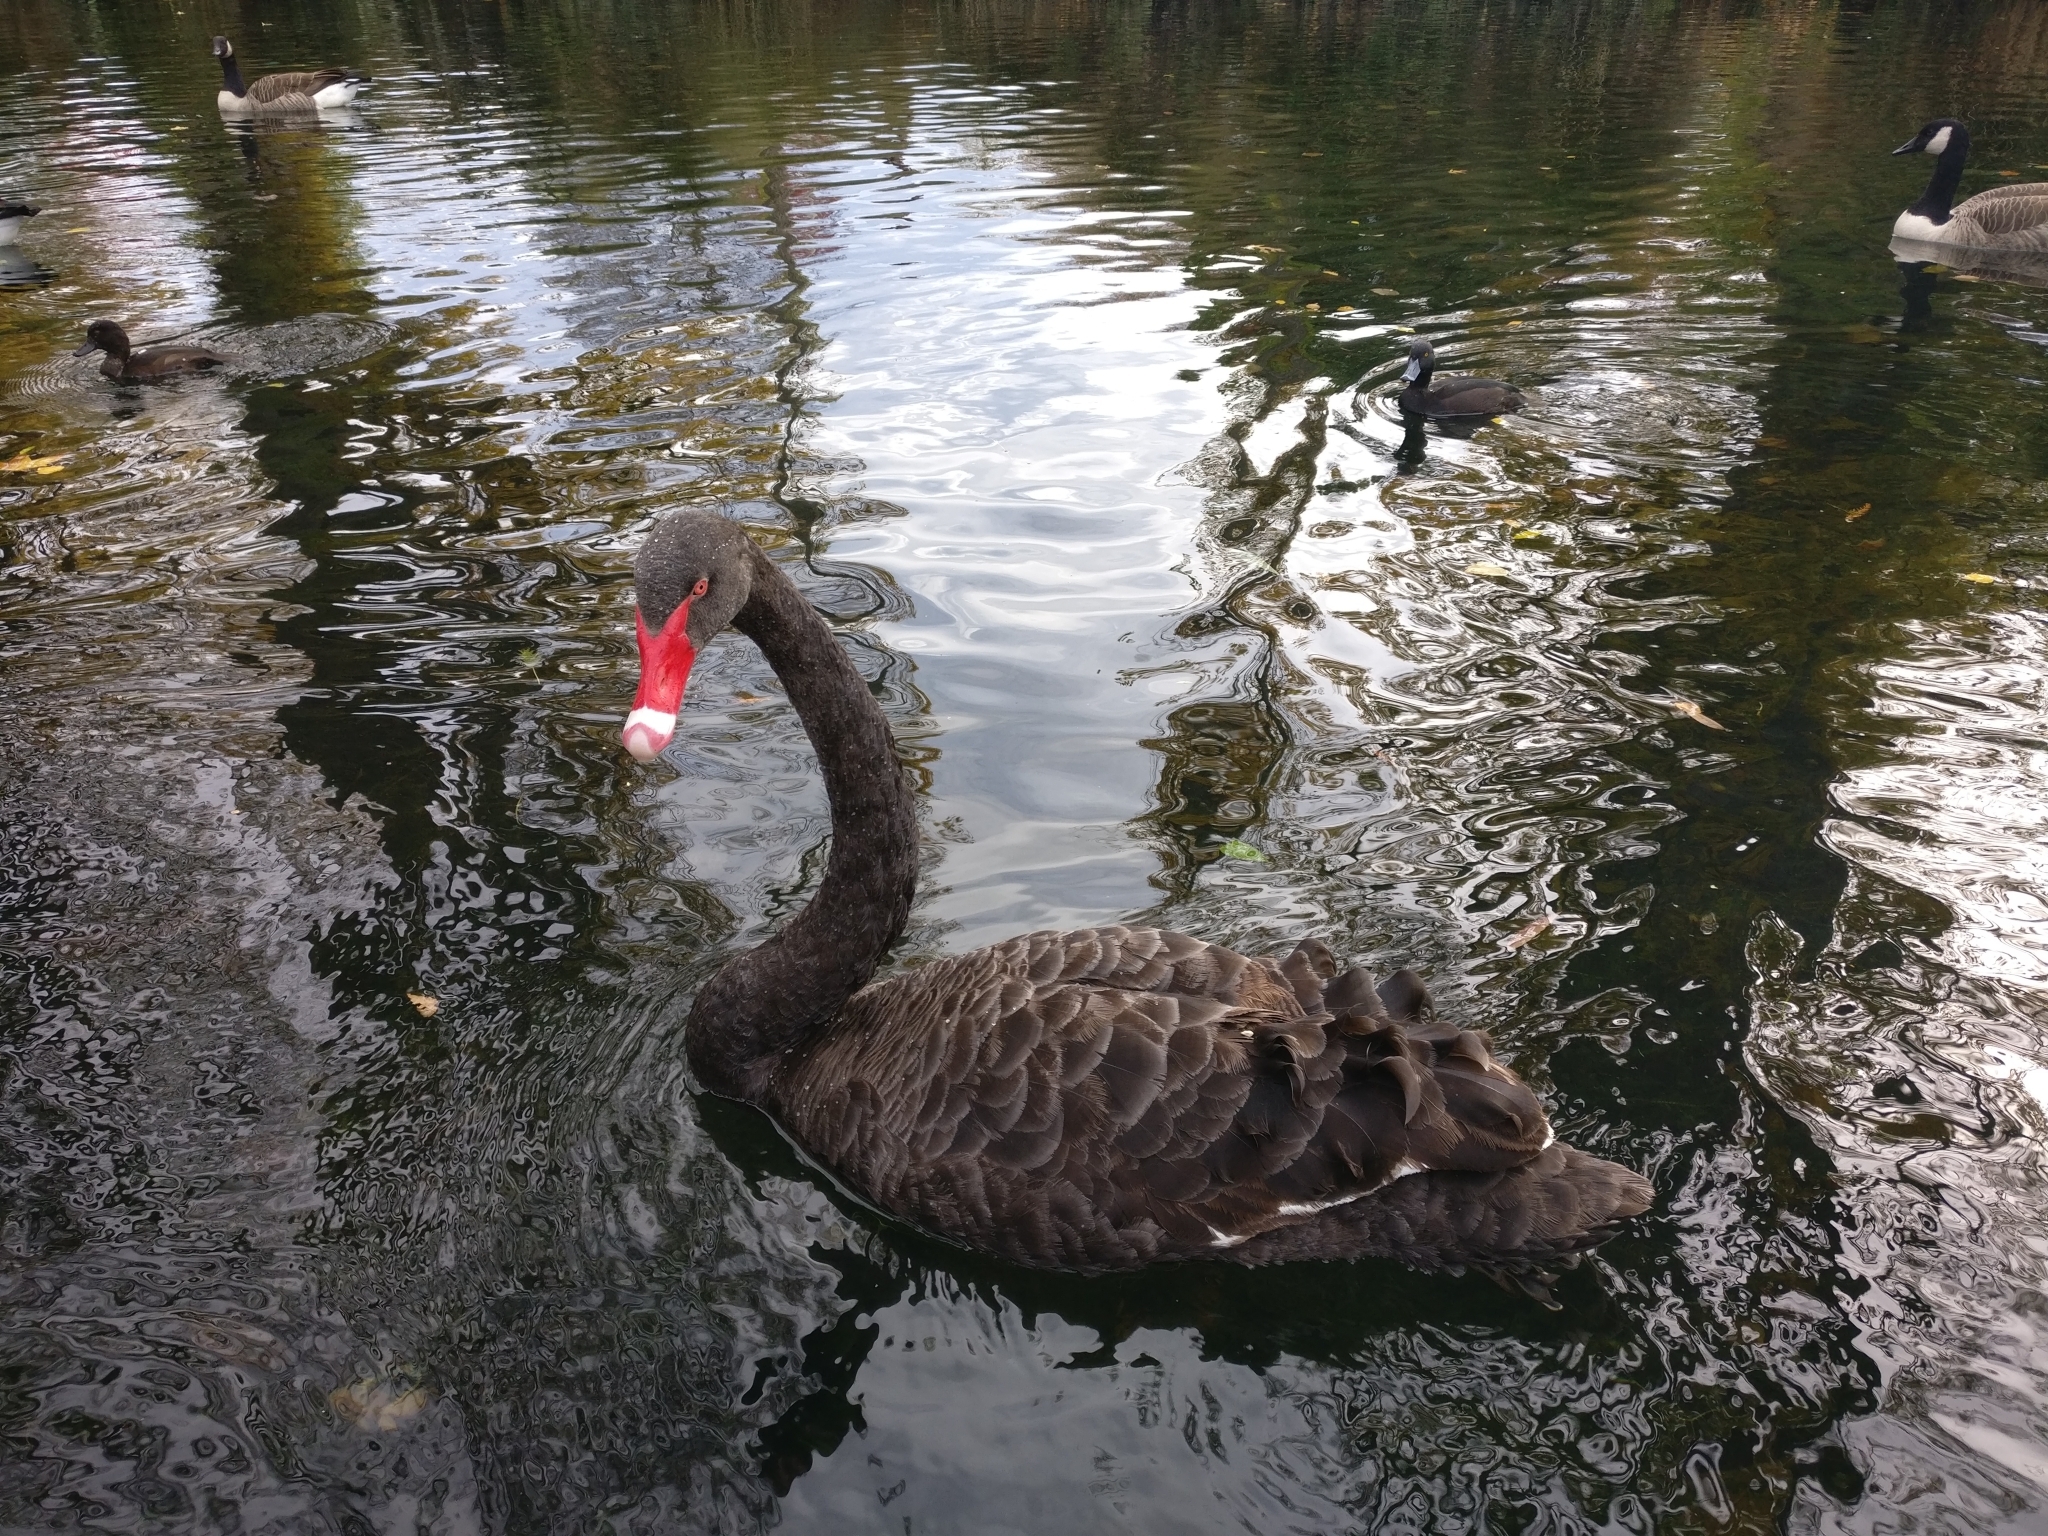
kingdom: Animalia
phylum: Chordata
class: Aves
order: Anseriformes
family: Anatidae
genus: Cygnus
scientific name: Cygnus atratus
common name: Black swan
